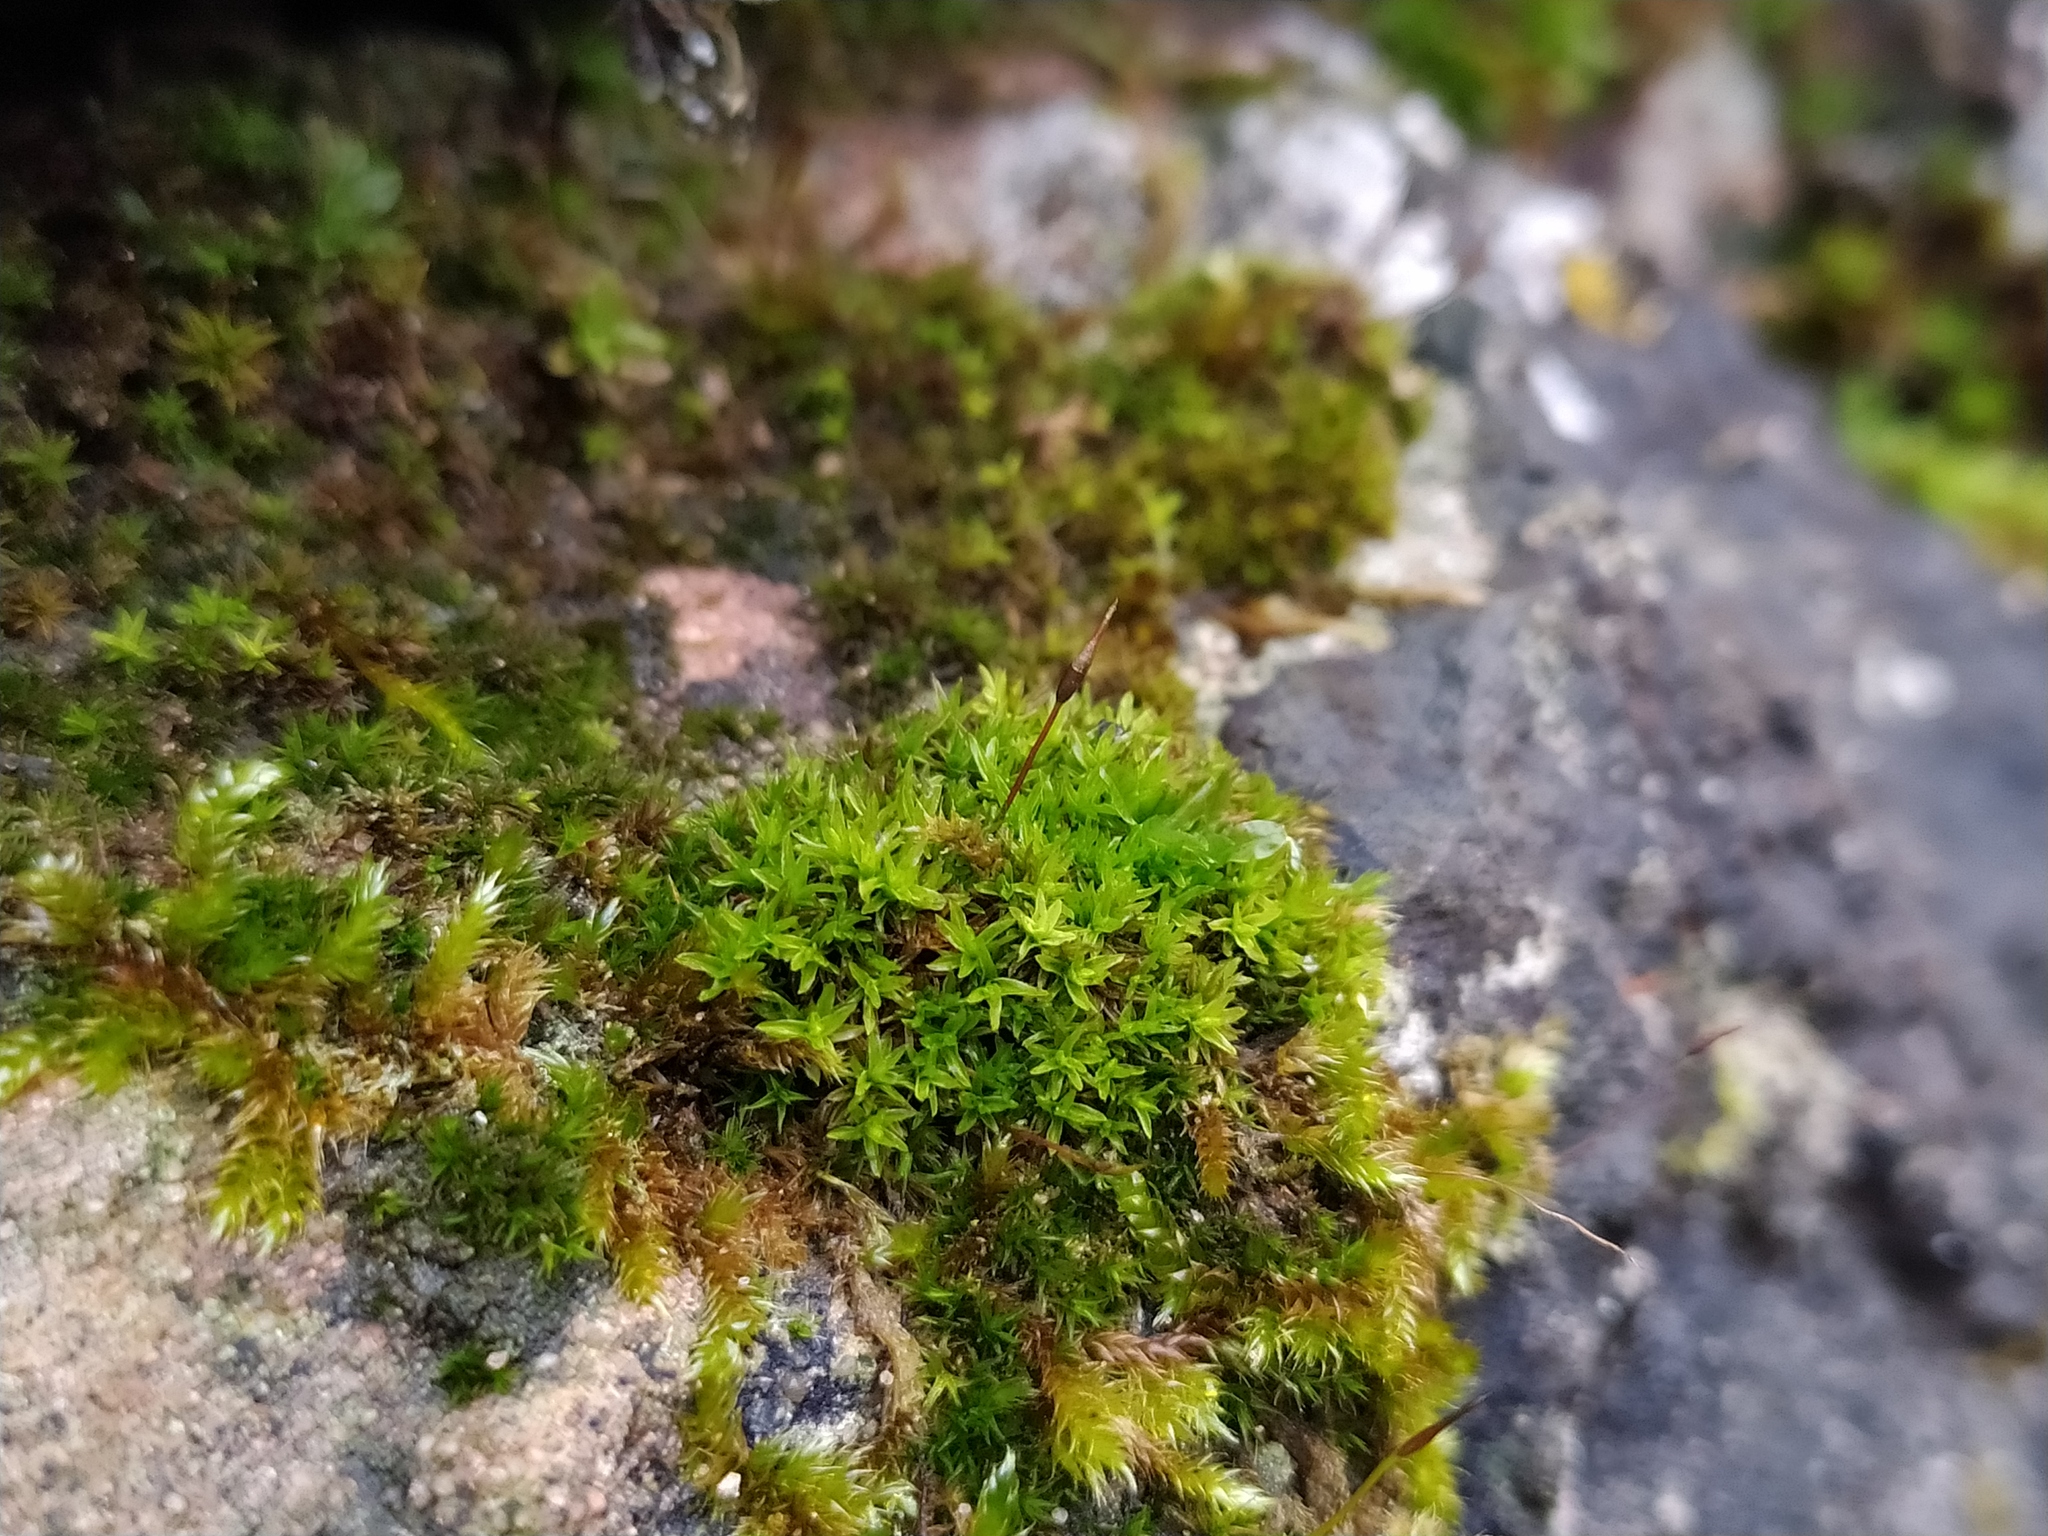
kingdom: Plantae
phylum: Bryophyta
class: Bryopsida
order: Pottiales
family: Pottiaceae
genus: Tortula
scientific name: Tortula subulata
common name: Upright screw-moss
